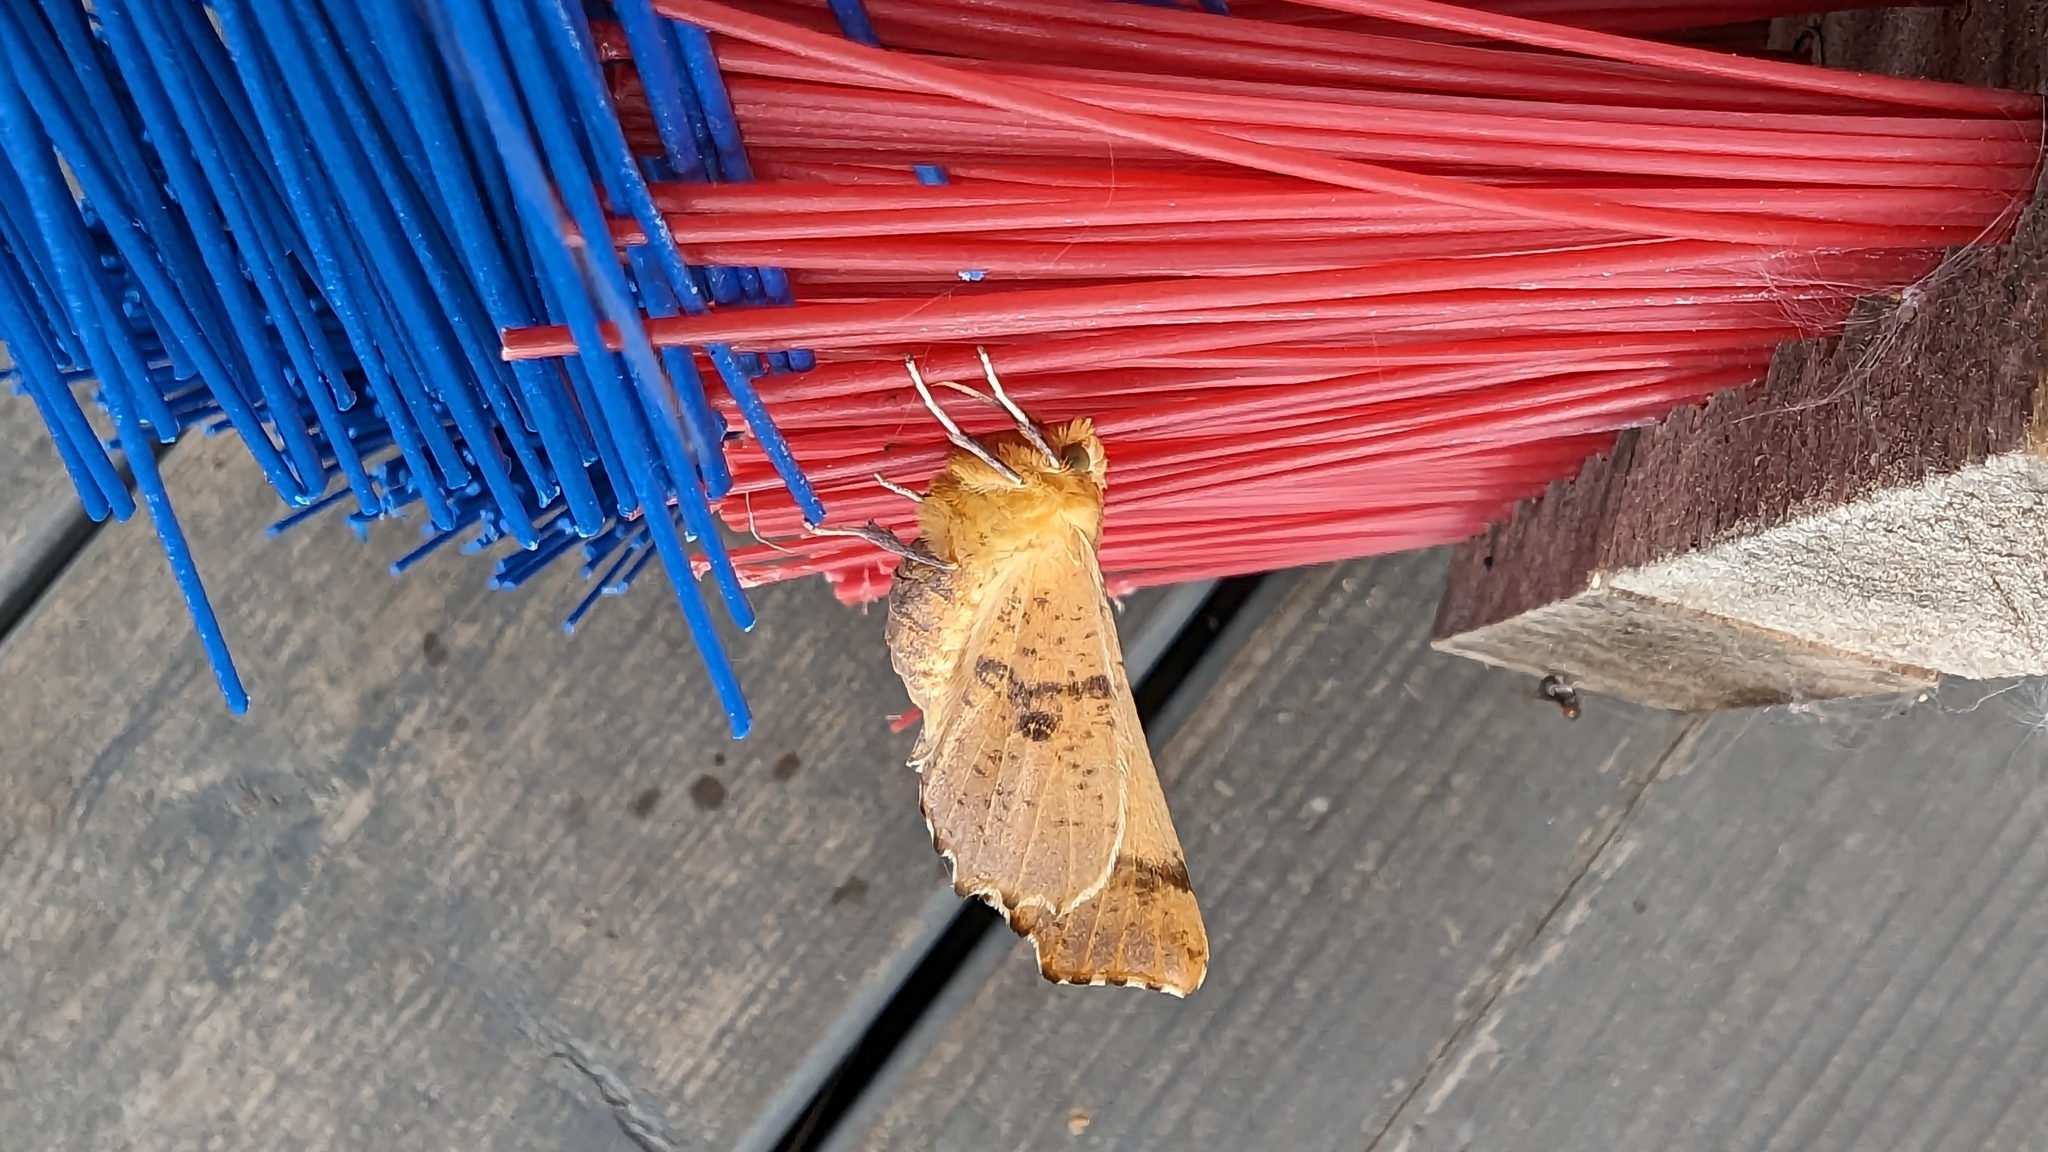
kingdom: Animalia
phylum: Arthropoda
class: Insecta
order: Lepidoptera
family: Geometridae
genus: Ennomos
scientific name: Ennomos autumnaria
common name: Large thorn
